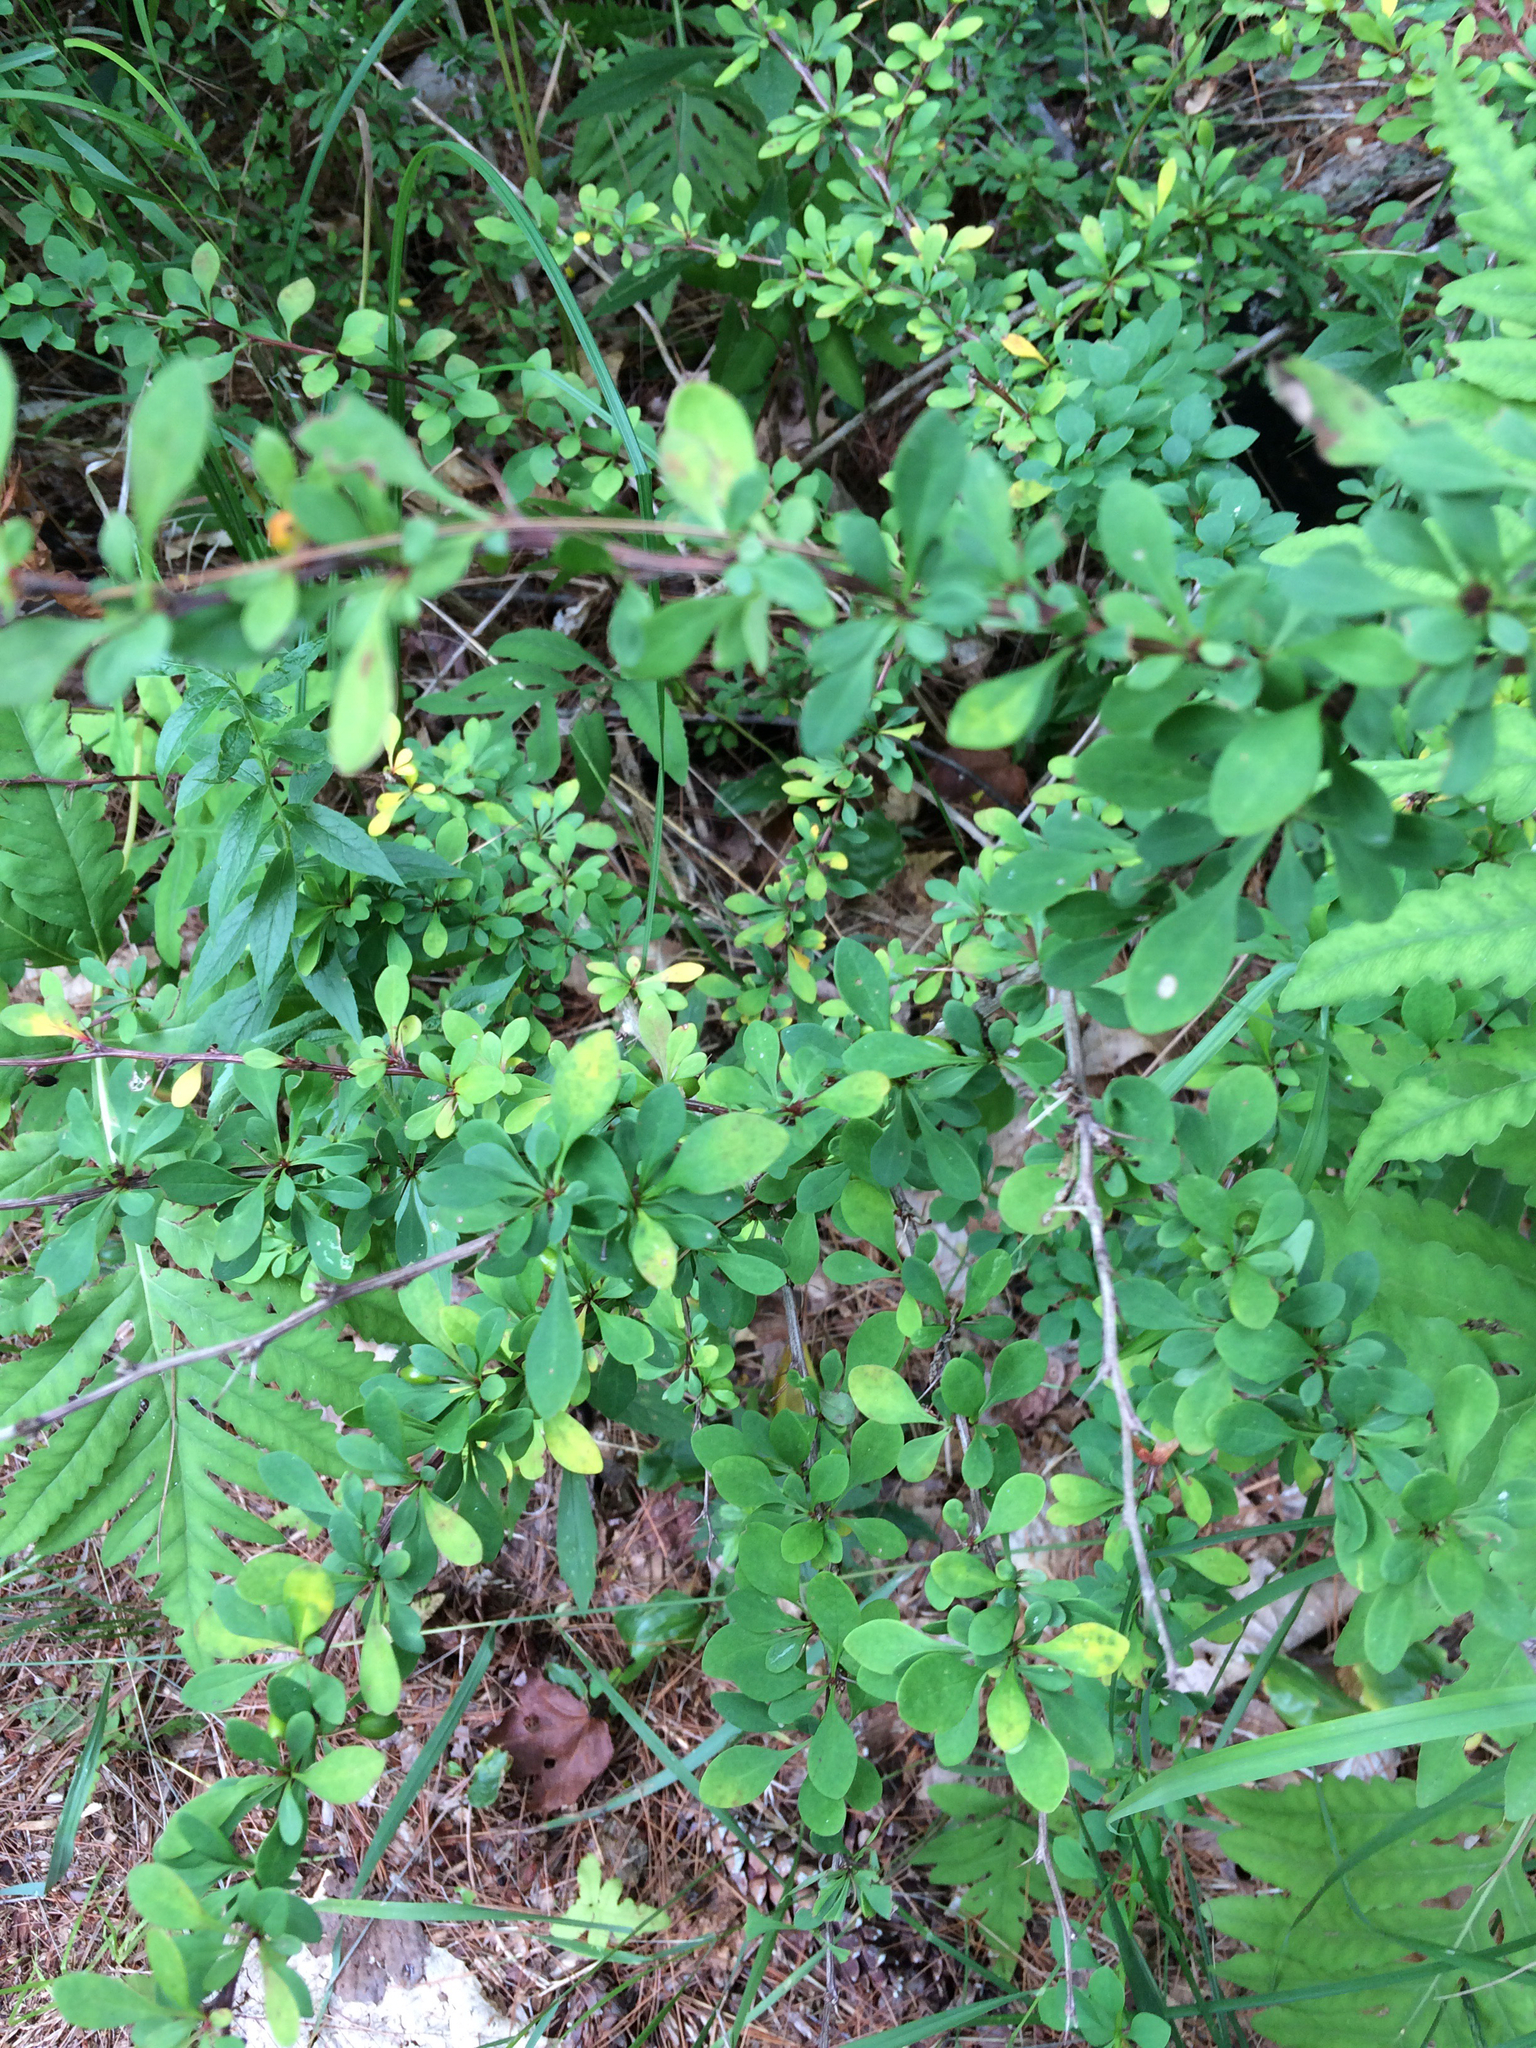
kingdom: Plantae
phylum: Tracheophyta
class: Magnoliopsida
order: Ranunculales
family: Berberidaceae
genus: Berberis
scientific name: Berberis thunbergii
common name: Japanese barberry
